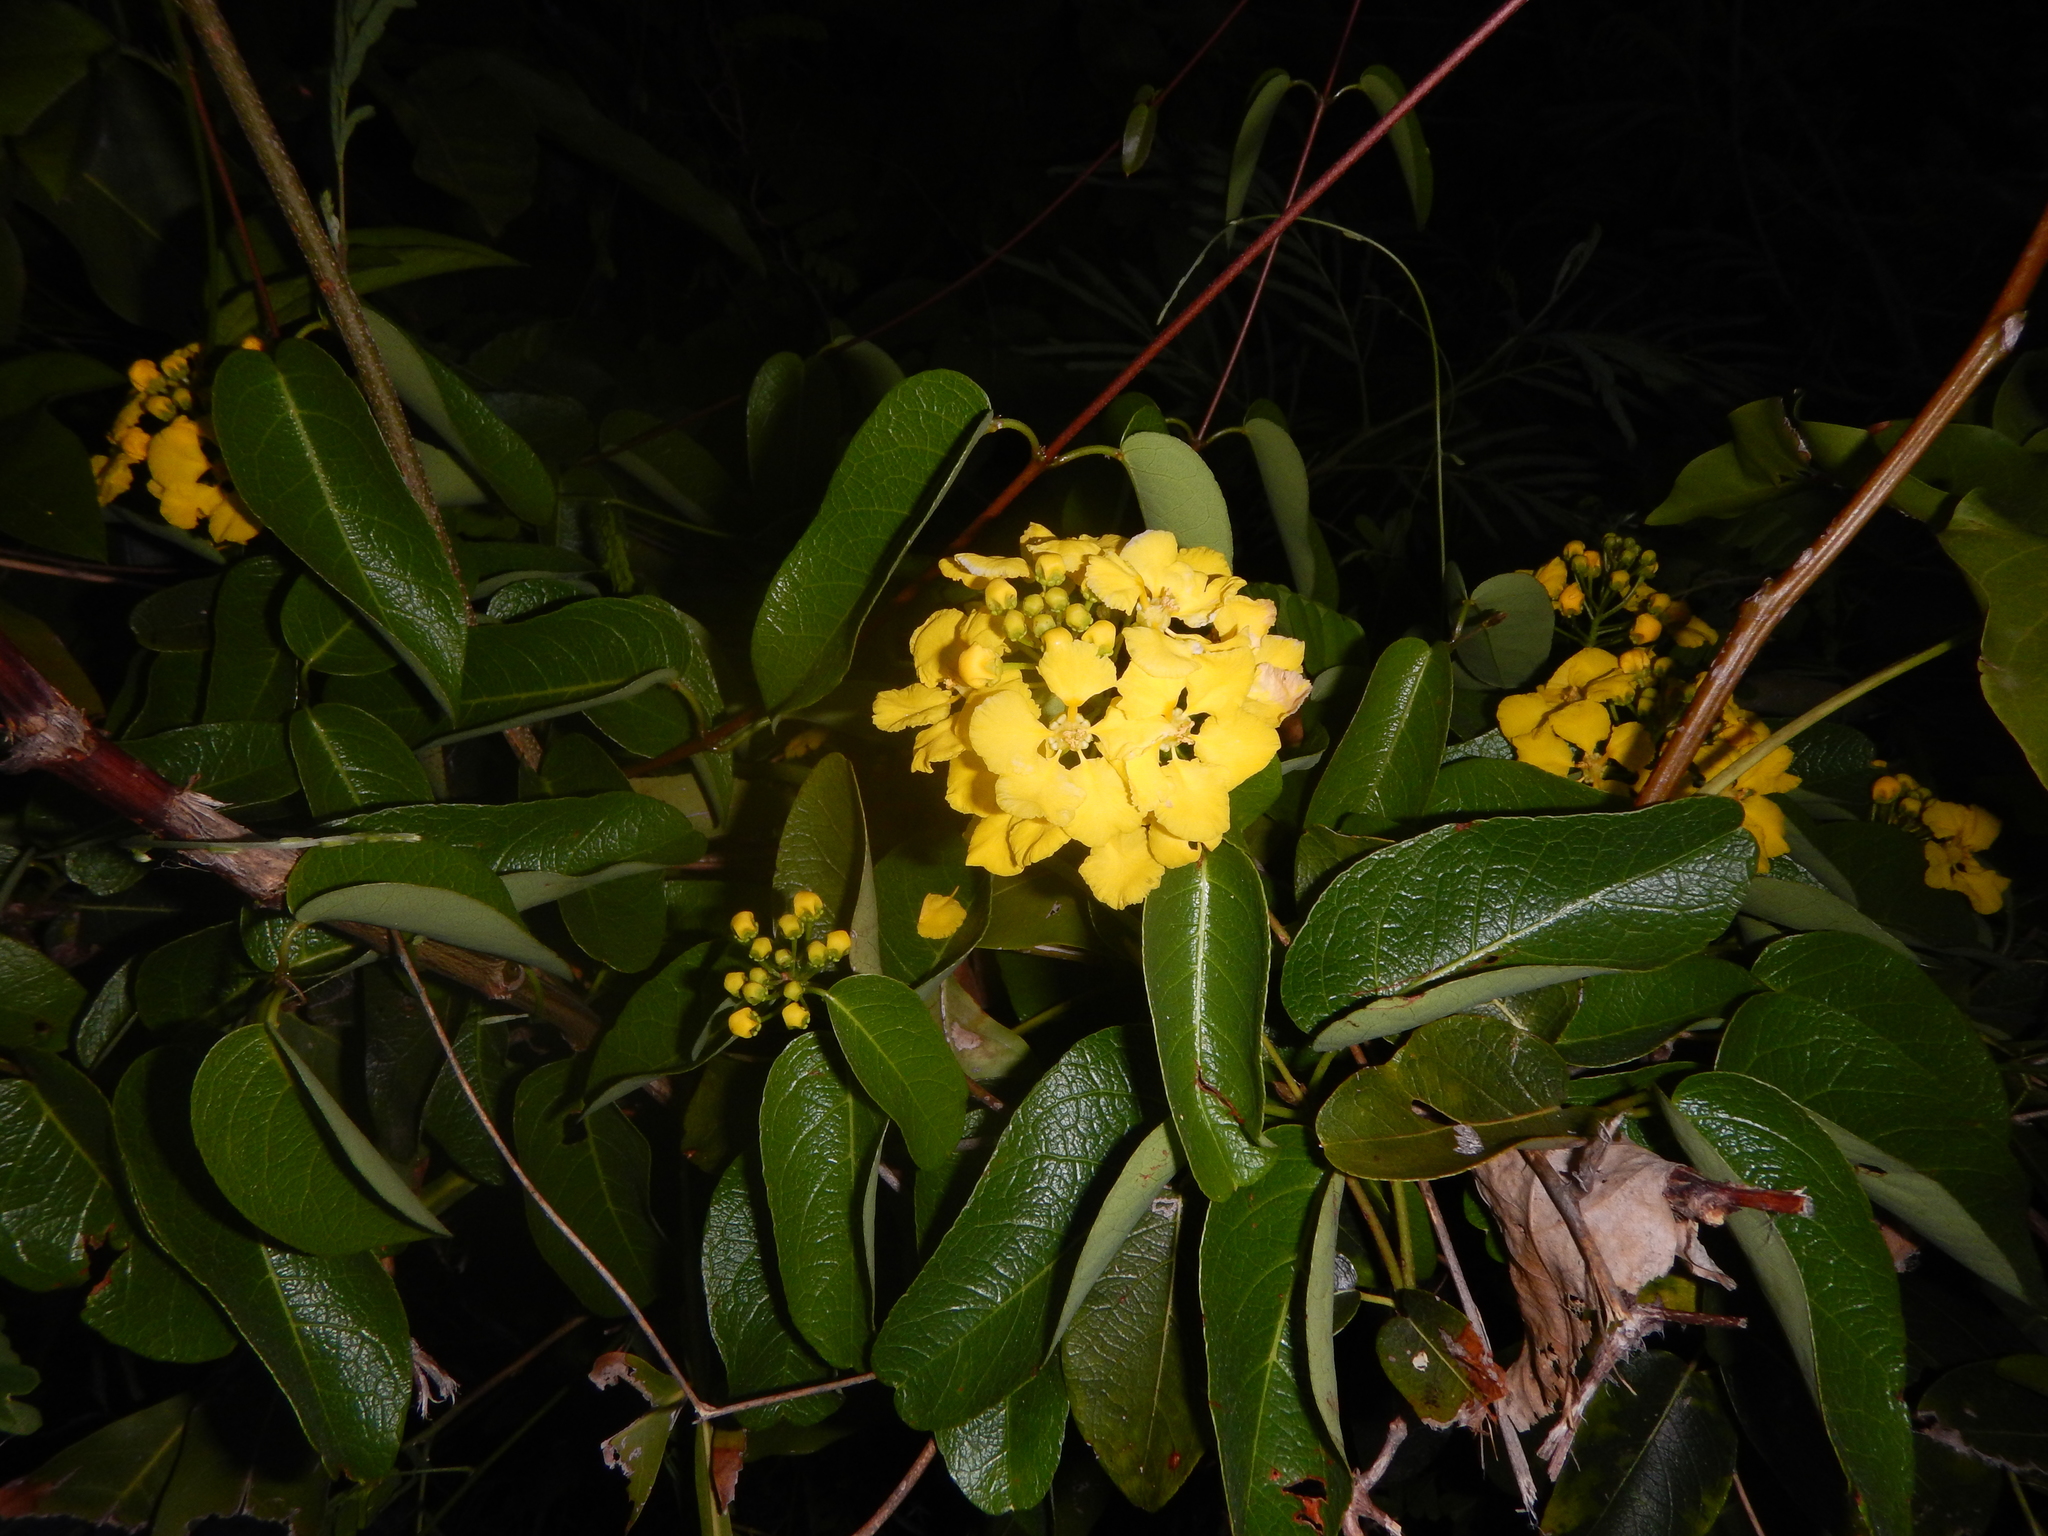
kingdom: Plantae
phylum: Tracheophyta
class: Magnoliopsida
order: Malpighiales
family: Malpighiaceae
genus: Stigmaphyllon
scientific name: Stigmaphyllon emarginatum
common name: Monarch amazonvine
